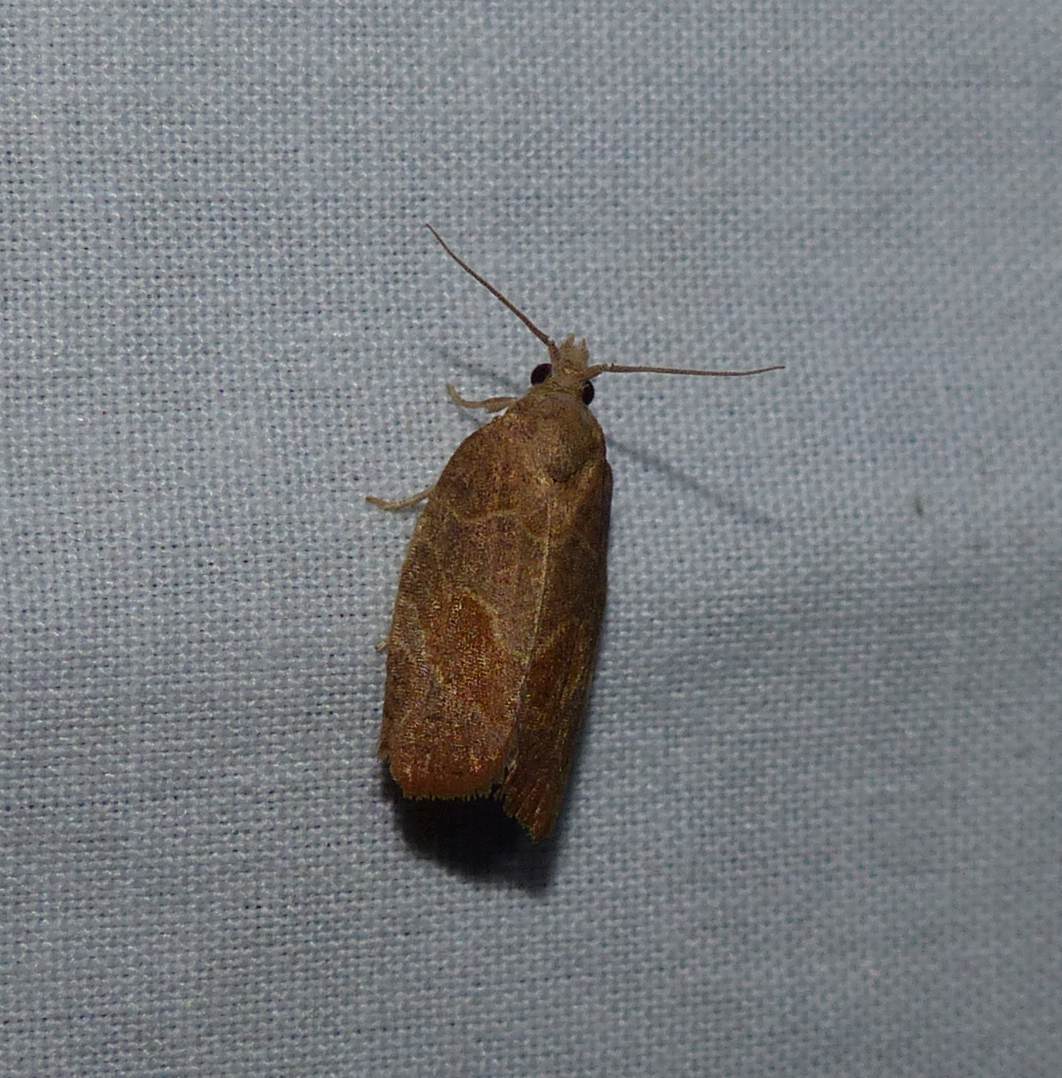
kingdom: Animalia
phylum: Arthropoda
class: Insecta
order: Lepidoptera
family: Tortricidae
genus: Pandemis
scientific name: Pandemis limitata
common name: Three-lined leafroller moth
